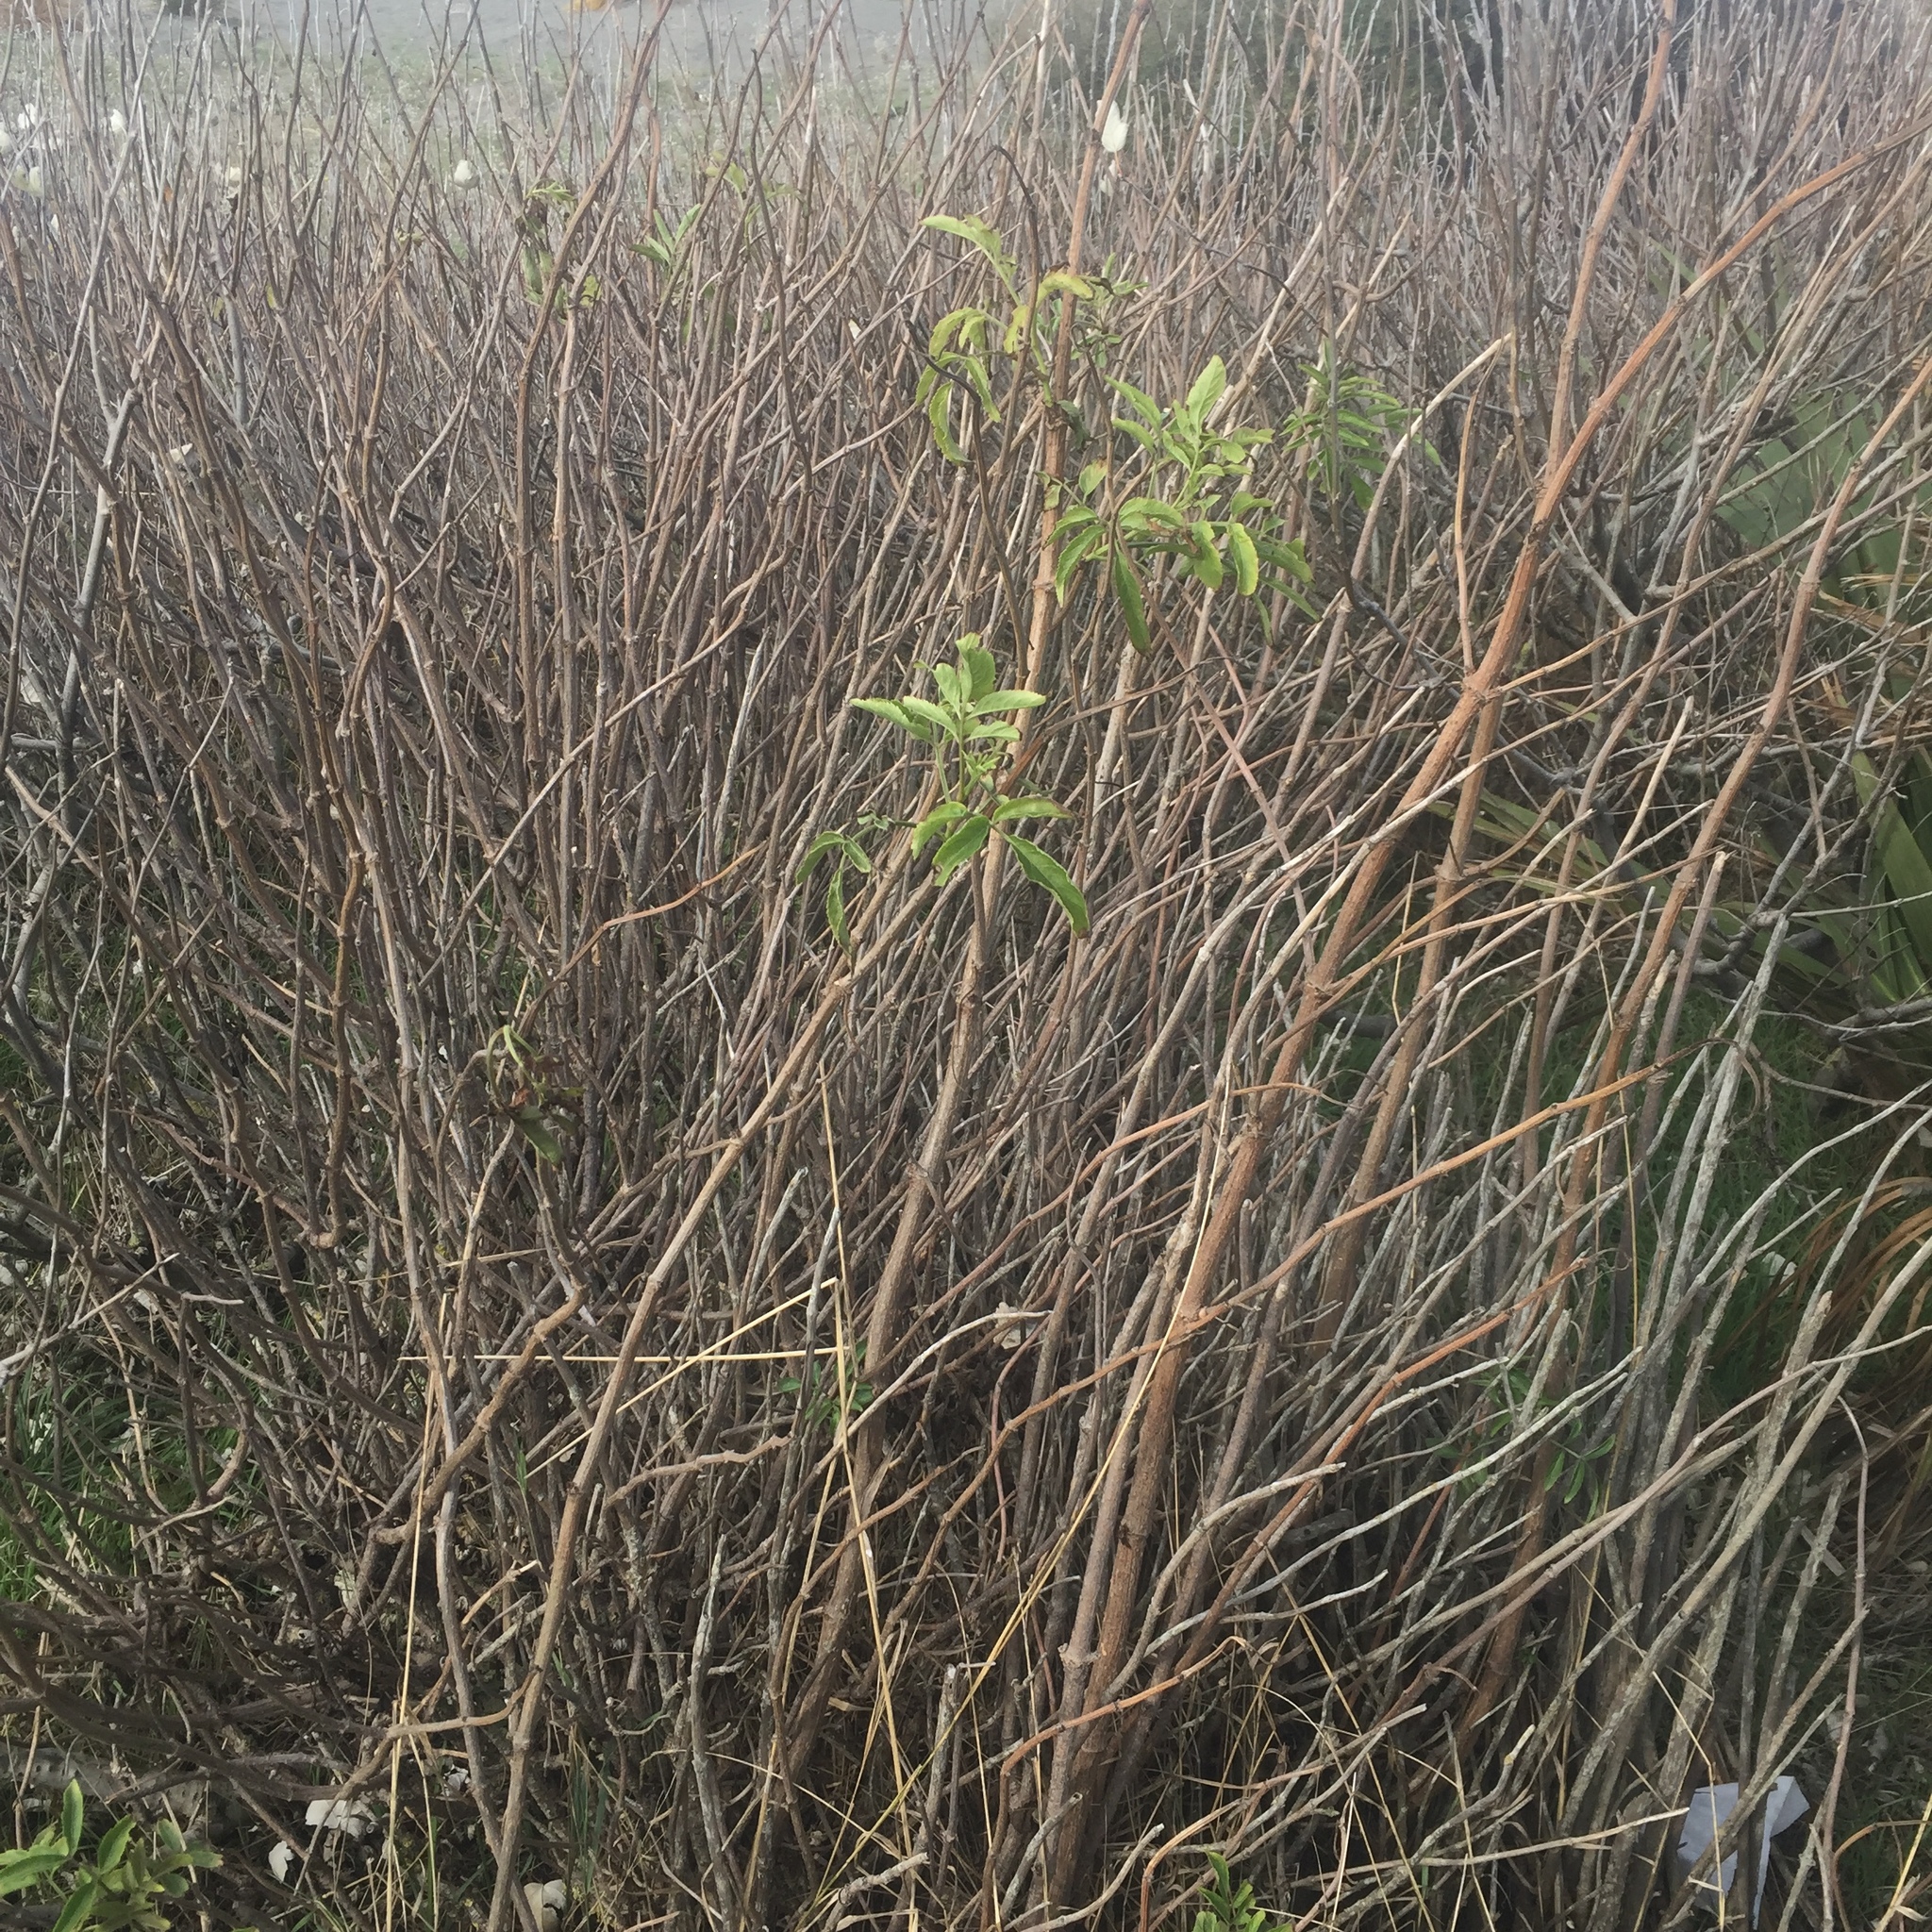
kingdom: Plantae
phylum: Tracheophyta
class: Magnoliopsida
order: Dipsacales
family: Viburnaceae
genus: Sambucus
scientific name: Sambucus nigra
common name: Elder
